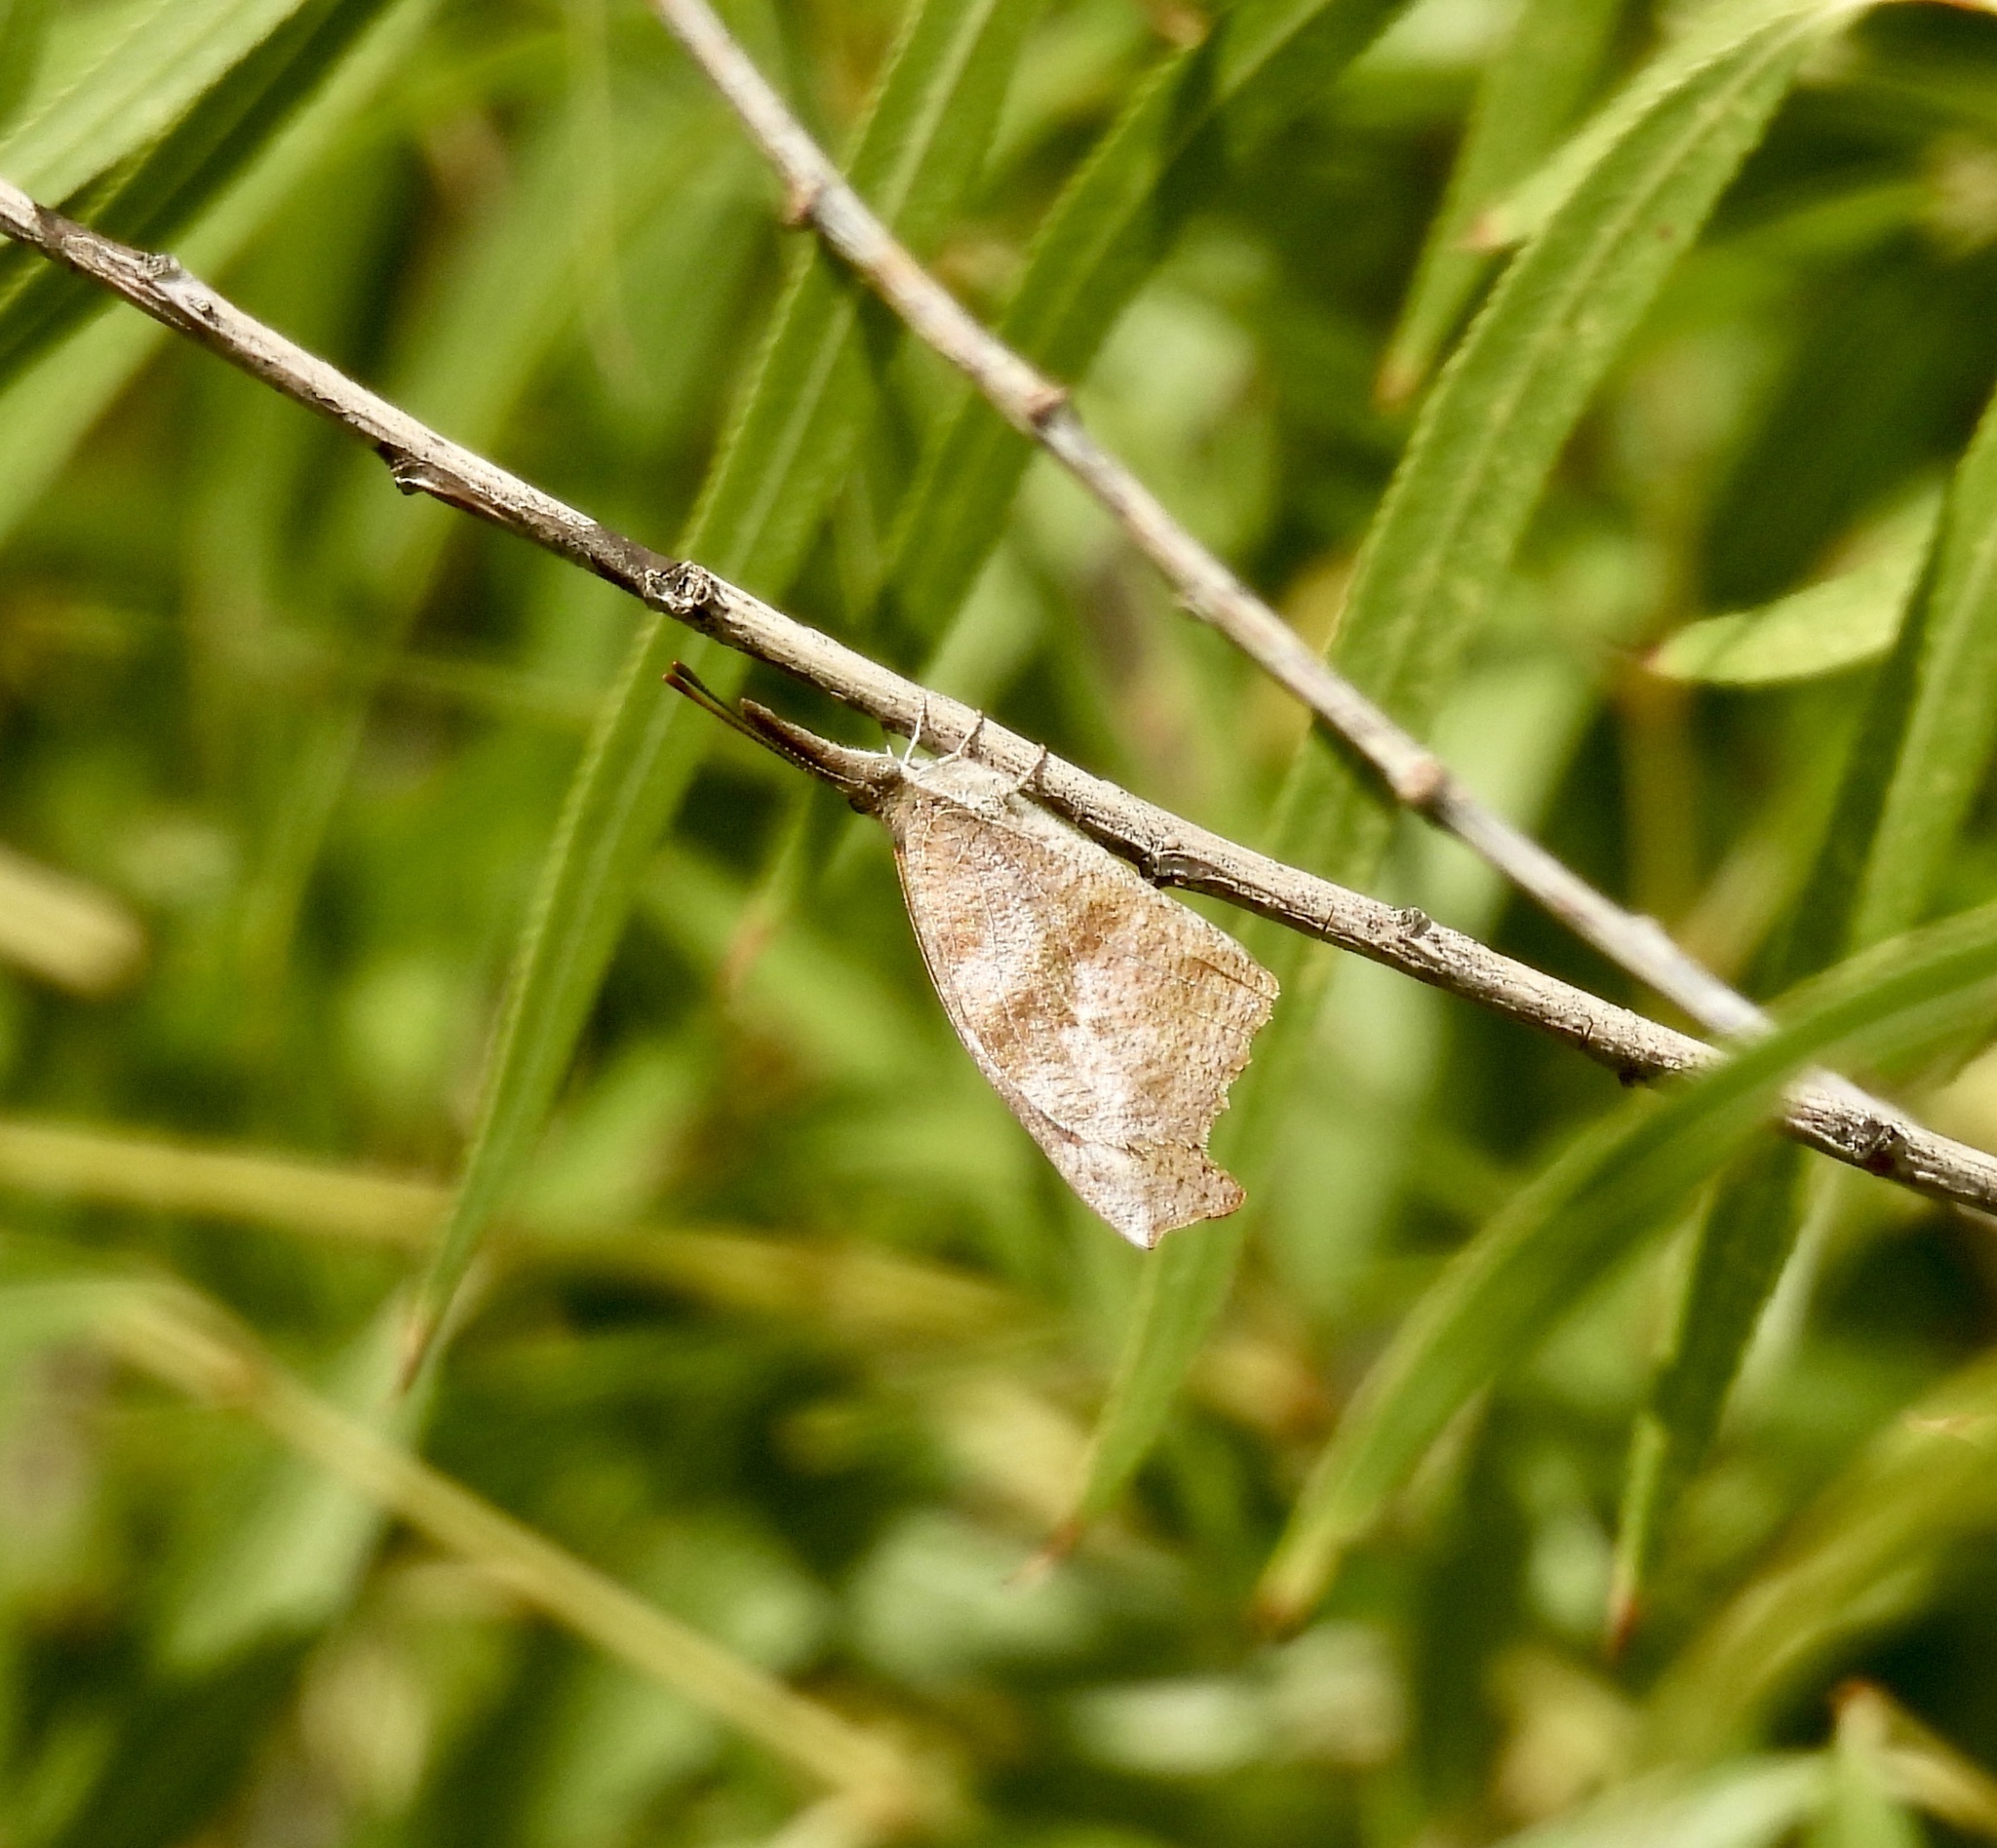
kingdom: Animalia
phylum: Arthropoda
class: Insecta
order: Lepidoptera
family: Nymphalidae
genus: Libytheana
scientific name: Libytheana carinenta
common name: American snout
